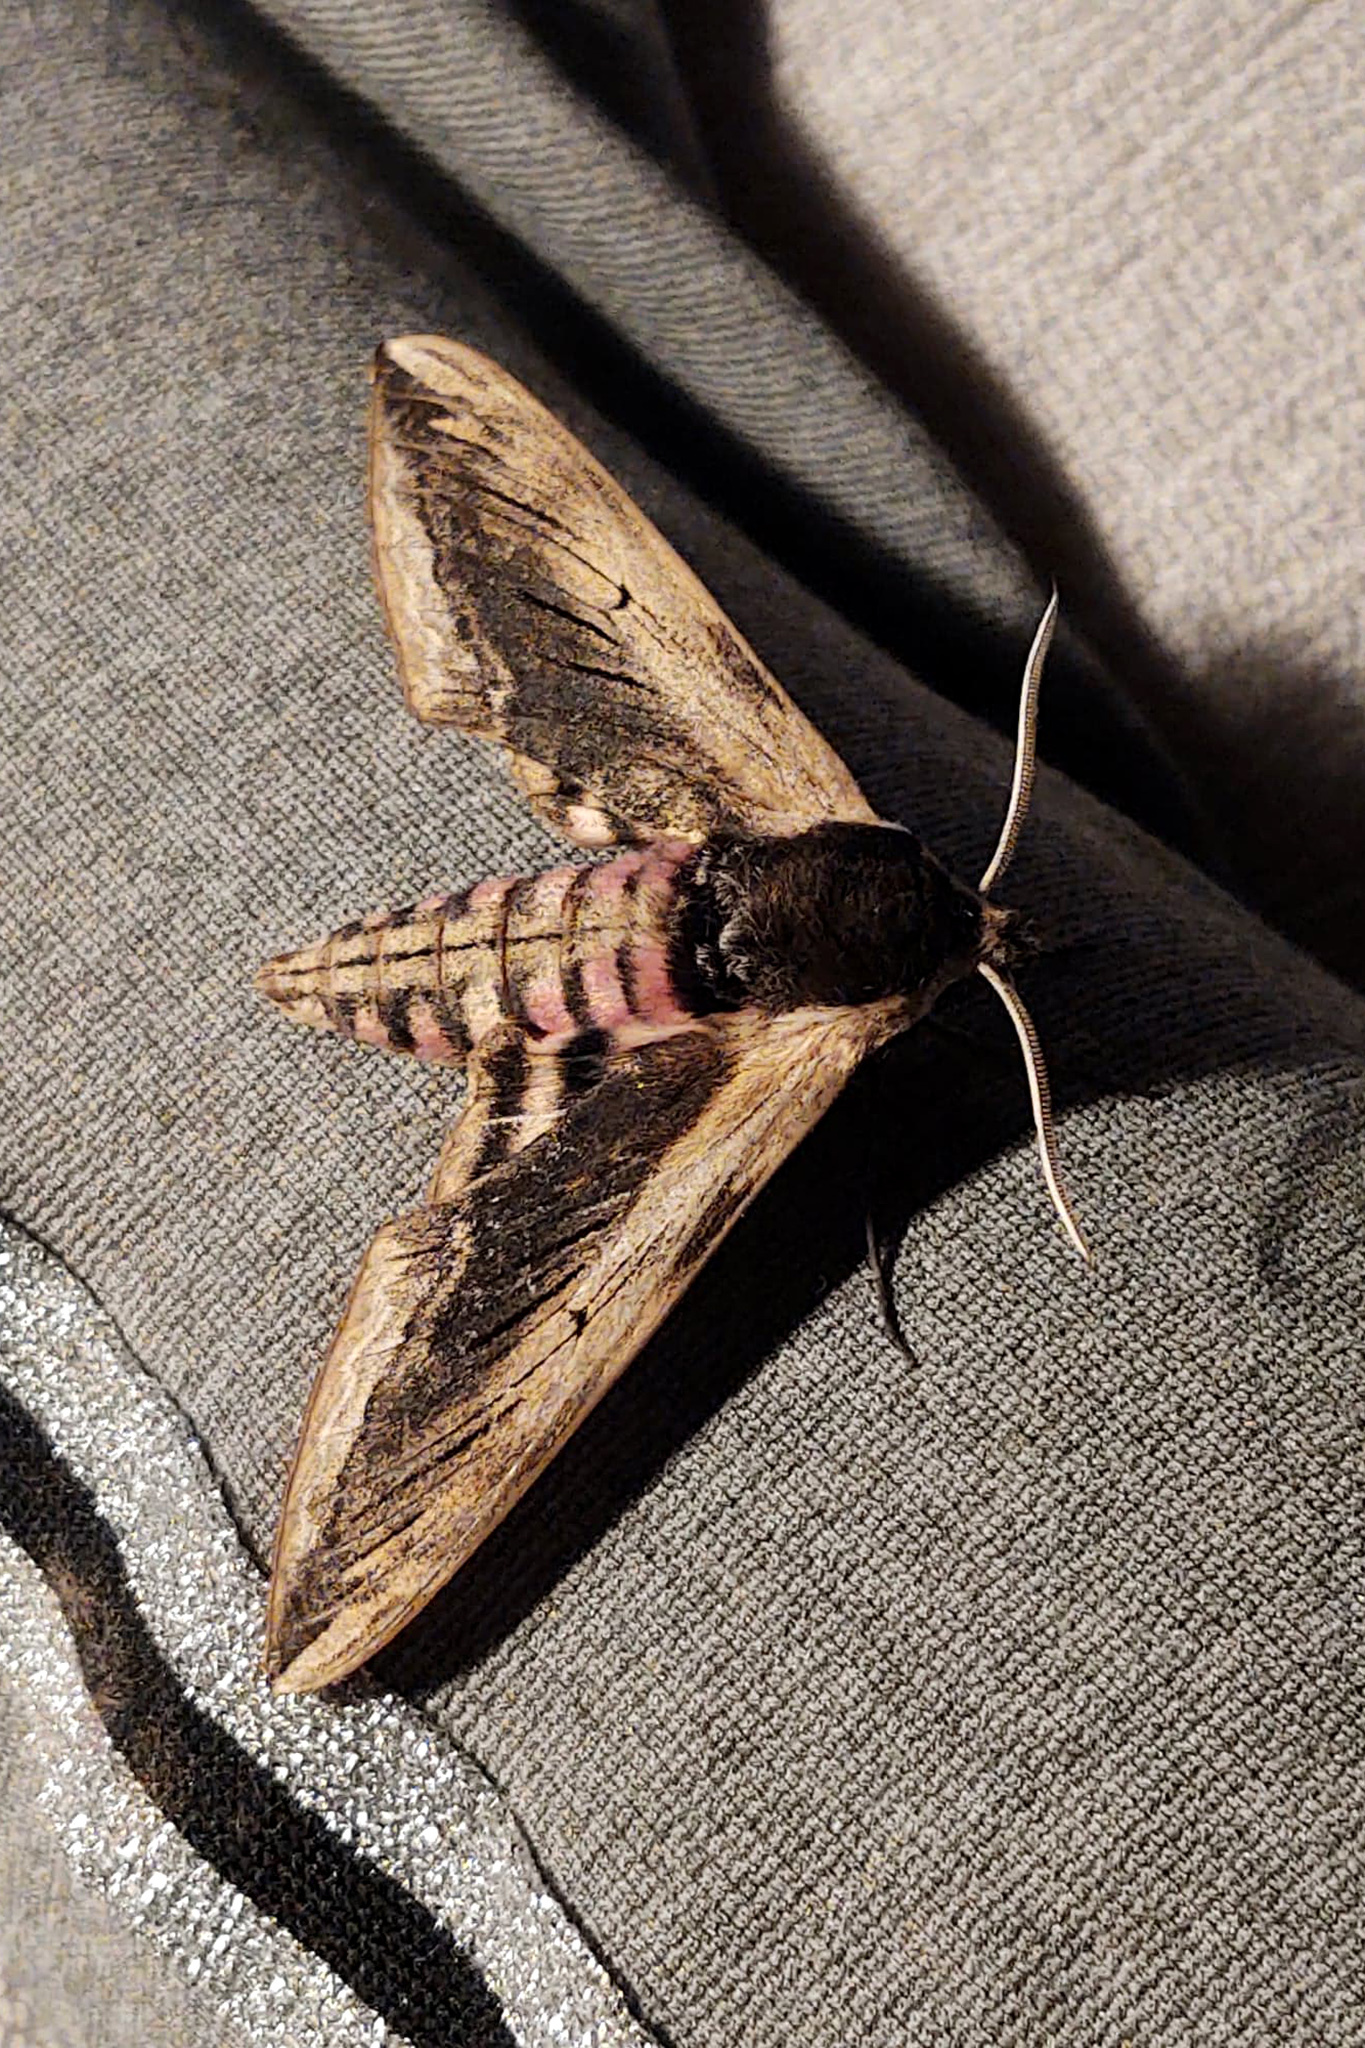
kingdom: Animalia
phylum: Arthropoda
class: Insecta
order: Lepidoptera
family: Sphingidae
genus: Sphinx
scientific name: Sphinx ligustri
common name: Privet hawk-moth
